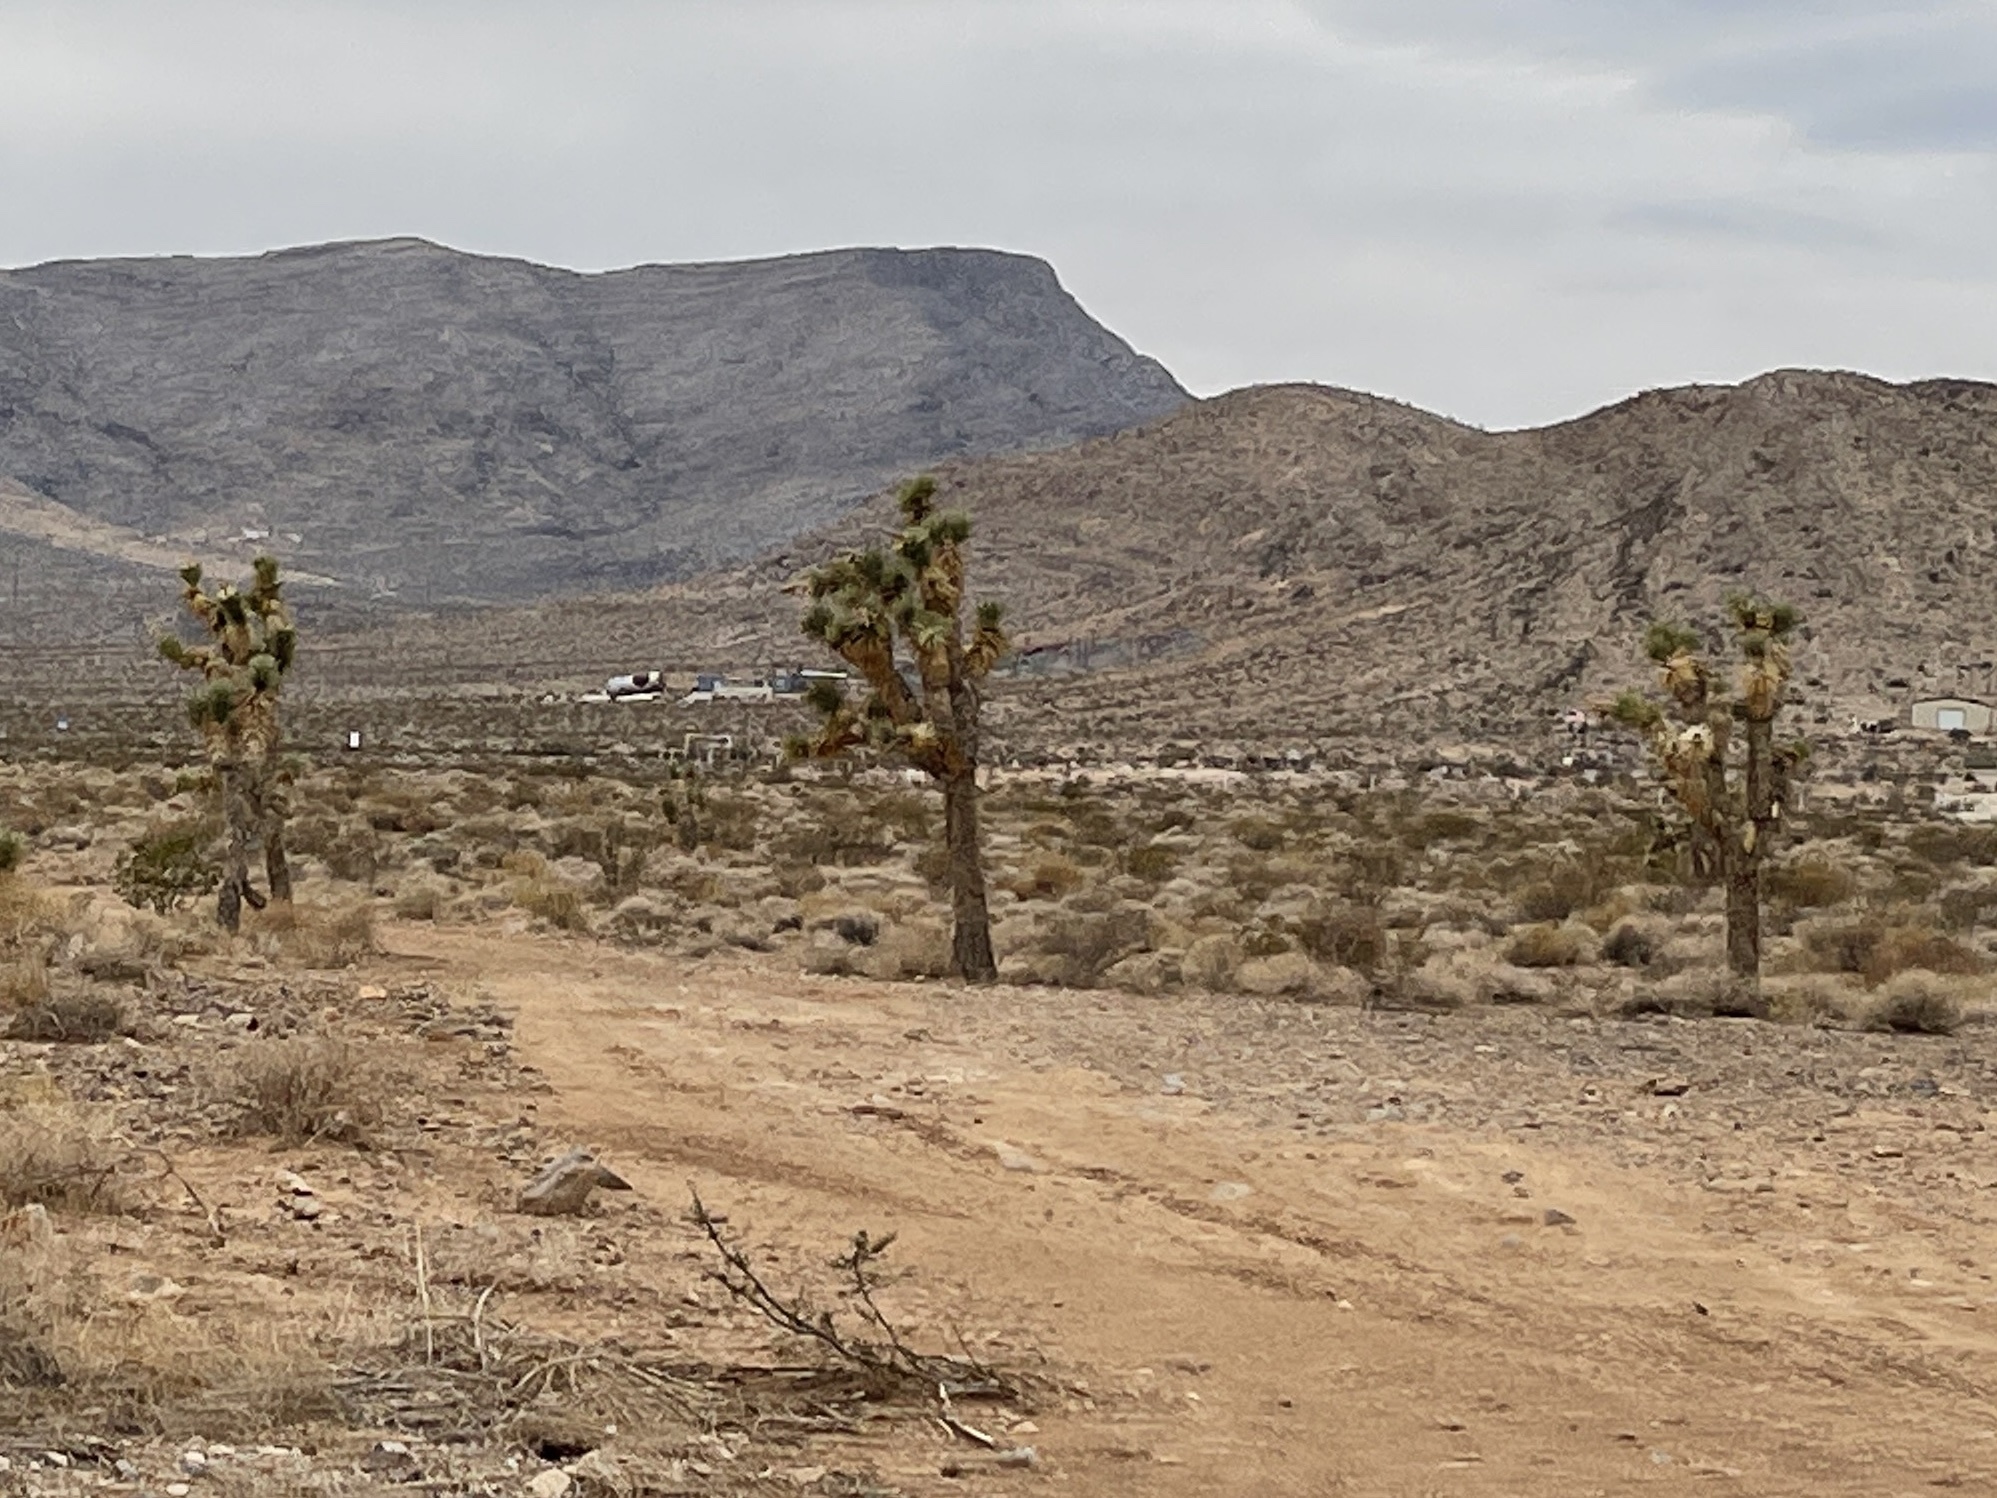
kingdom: Plantae
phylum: Tracheophyta
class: Liliopsida
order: Asparagales
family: Asparagaceae
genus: Yucca
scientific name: Yucca brevifolia
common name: Joshua tree
